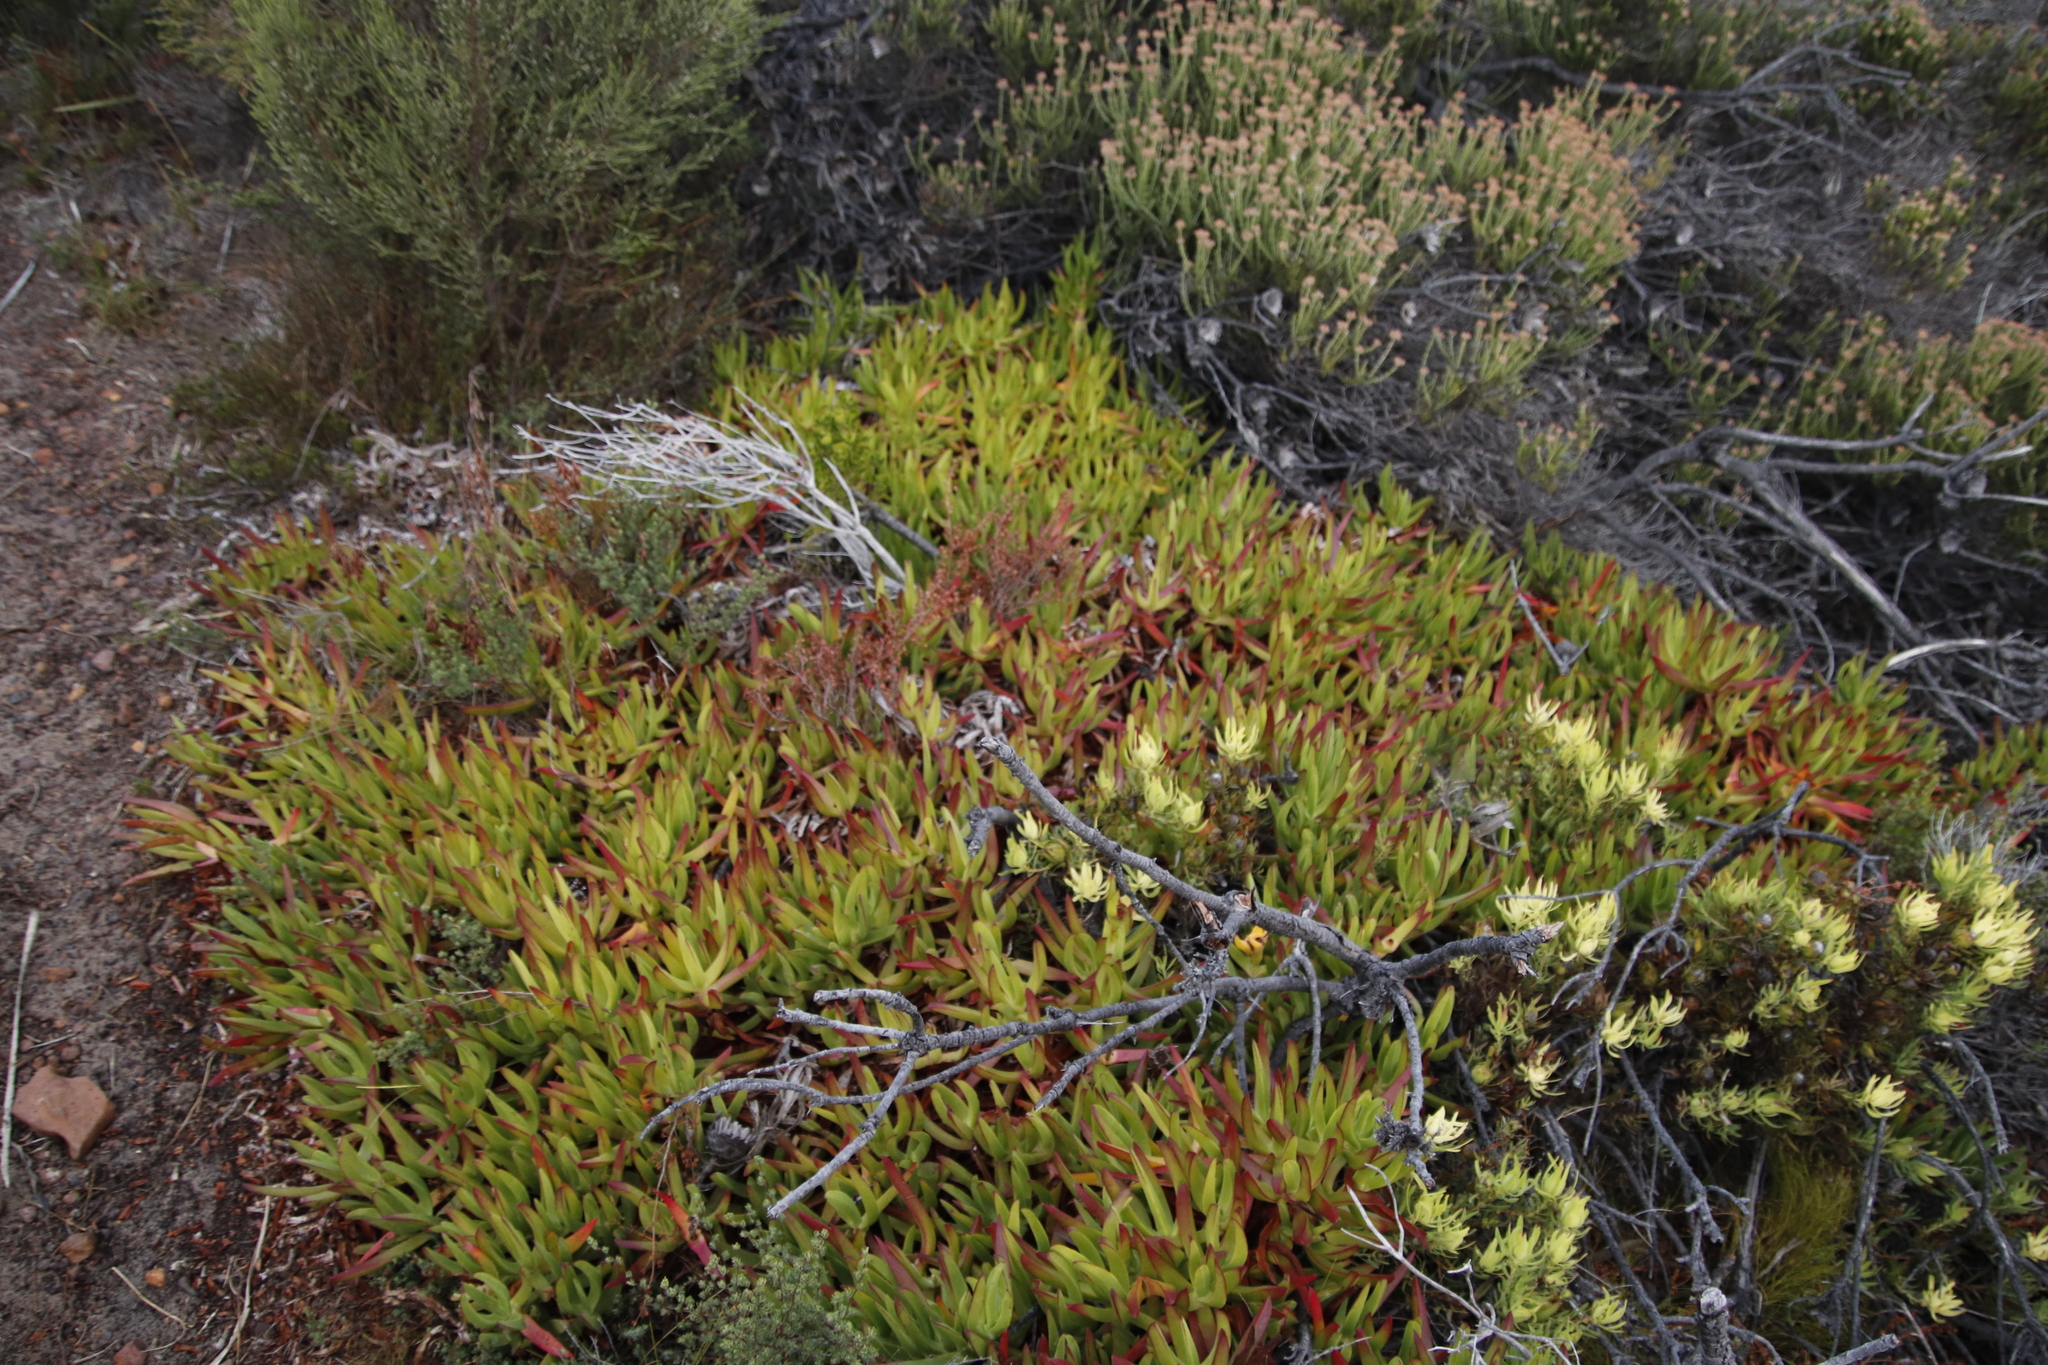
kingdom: Plantae
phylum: Tracheophyta
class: Magnoliopsida
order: Caryophyllales
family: Aizoaceae
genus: Carpobrotus
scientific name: Carpobrotus edulis
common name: Hottentot-fig
